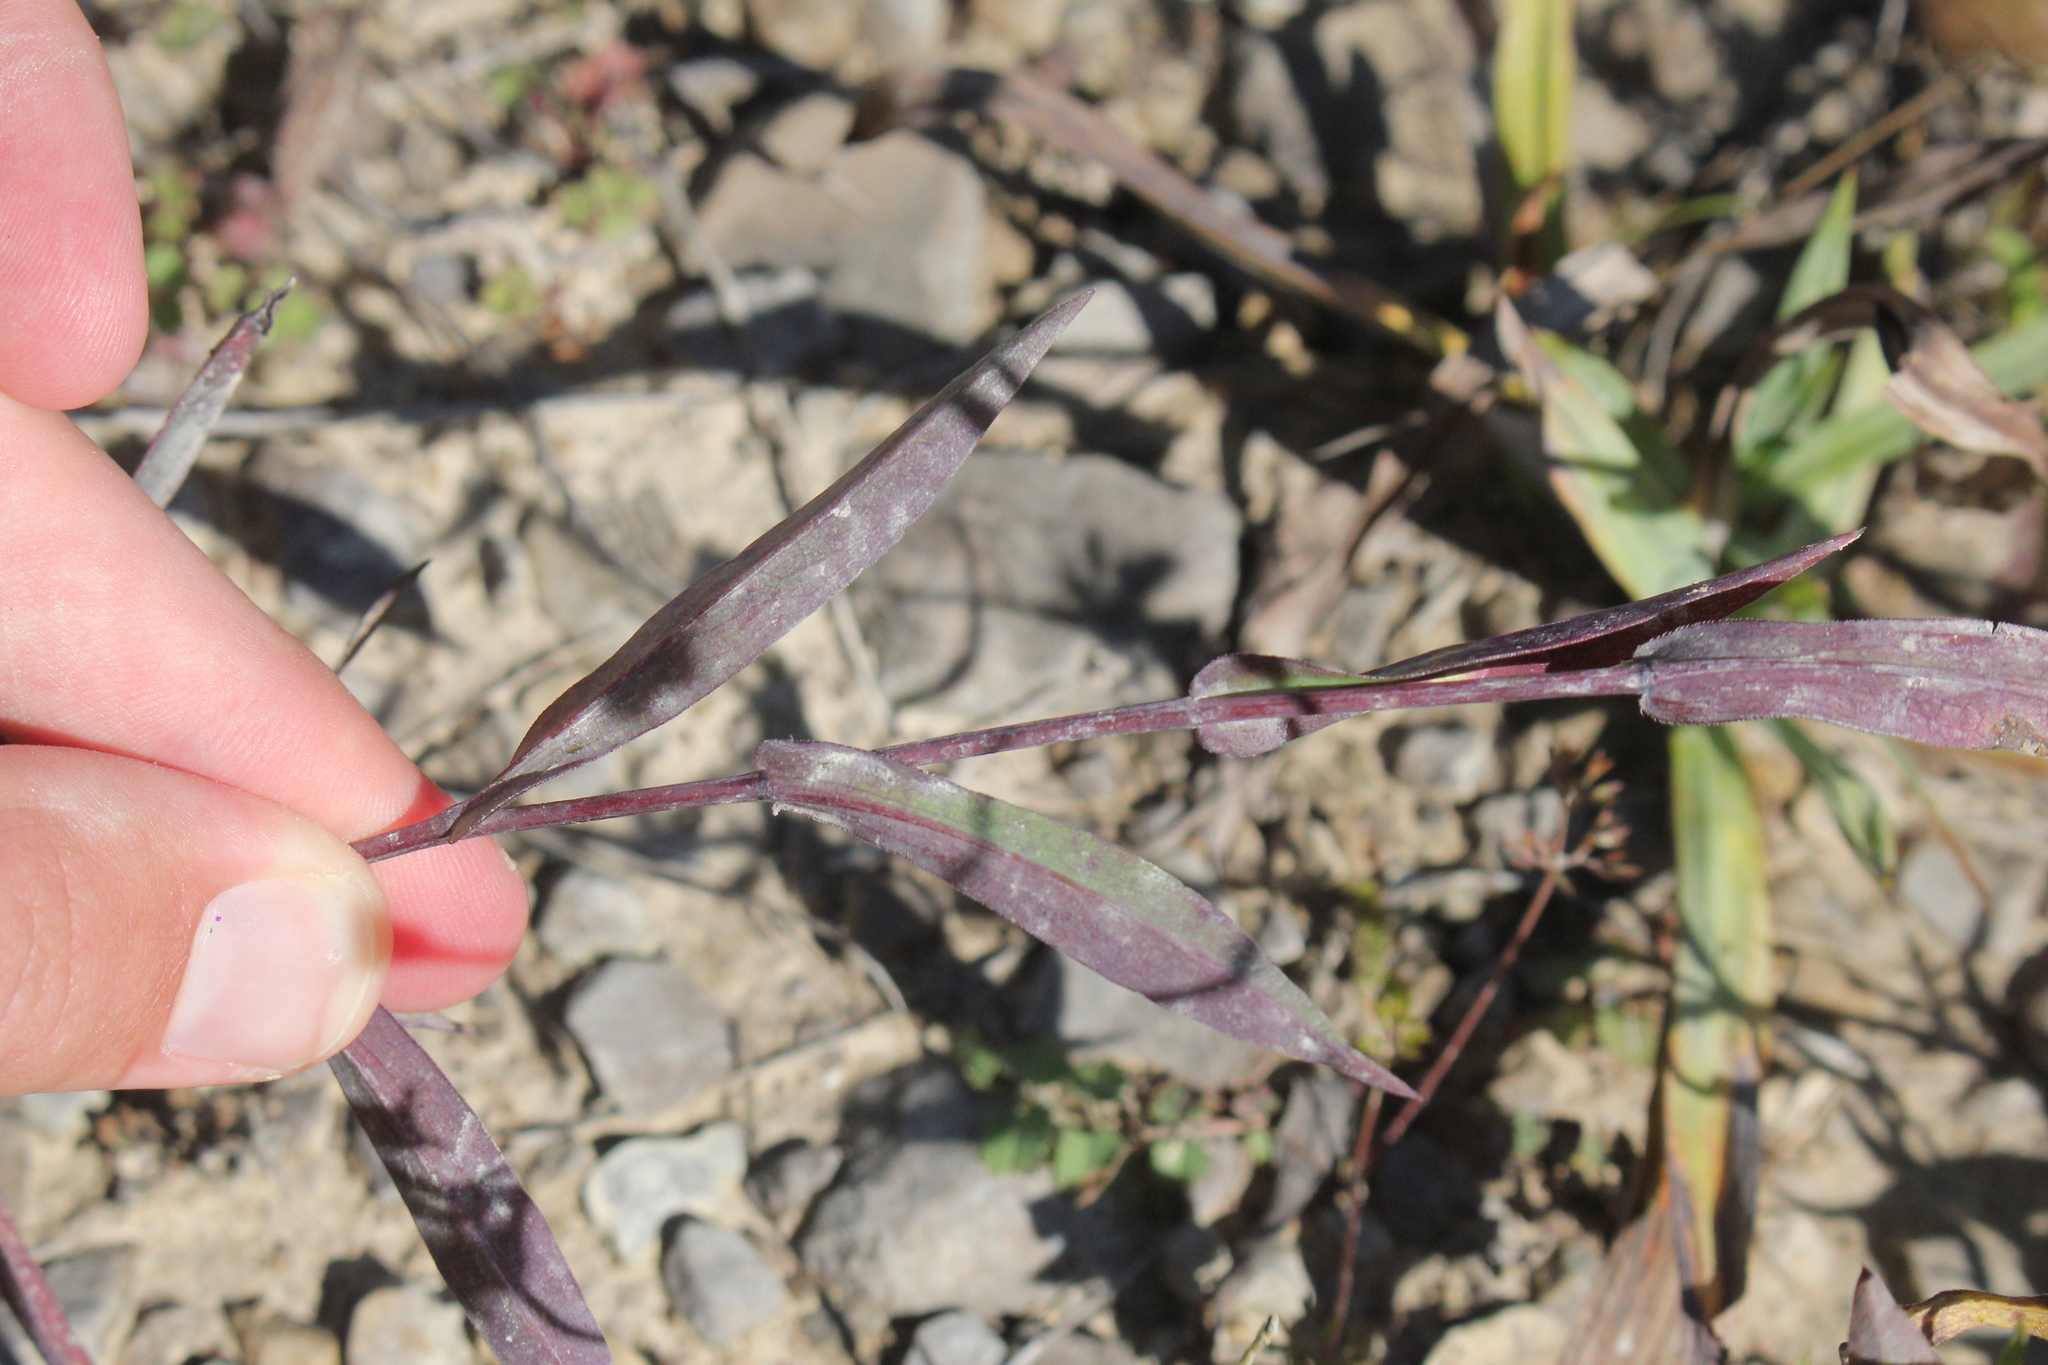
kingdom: Plantae
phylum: Tracheophyta
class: Magnoliopsida
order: Asterales
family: Asteraceae
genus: Symphyotrichum
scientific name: Symphyotrichum laeve
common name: Glaucous aster
